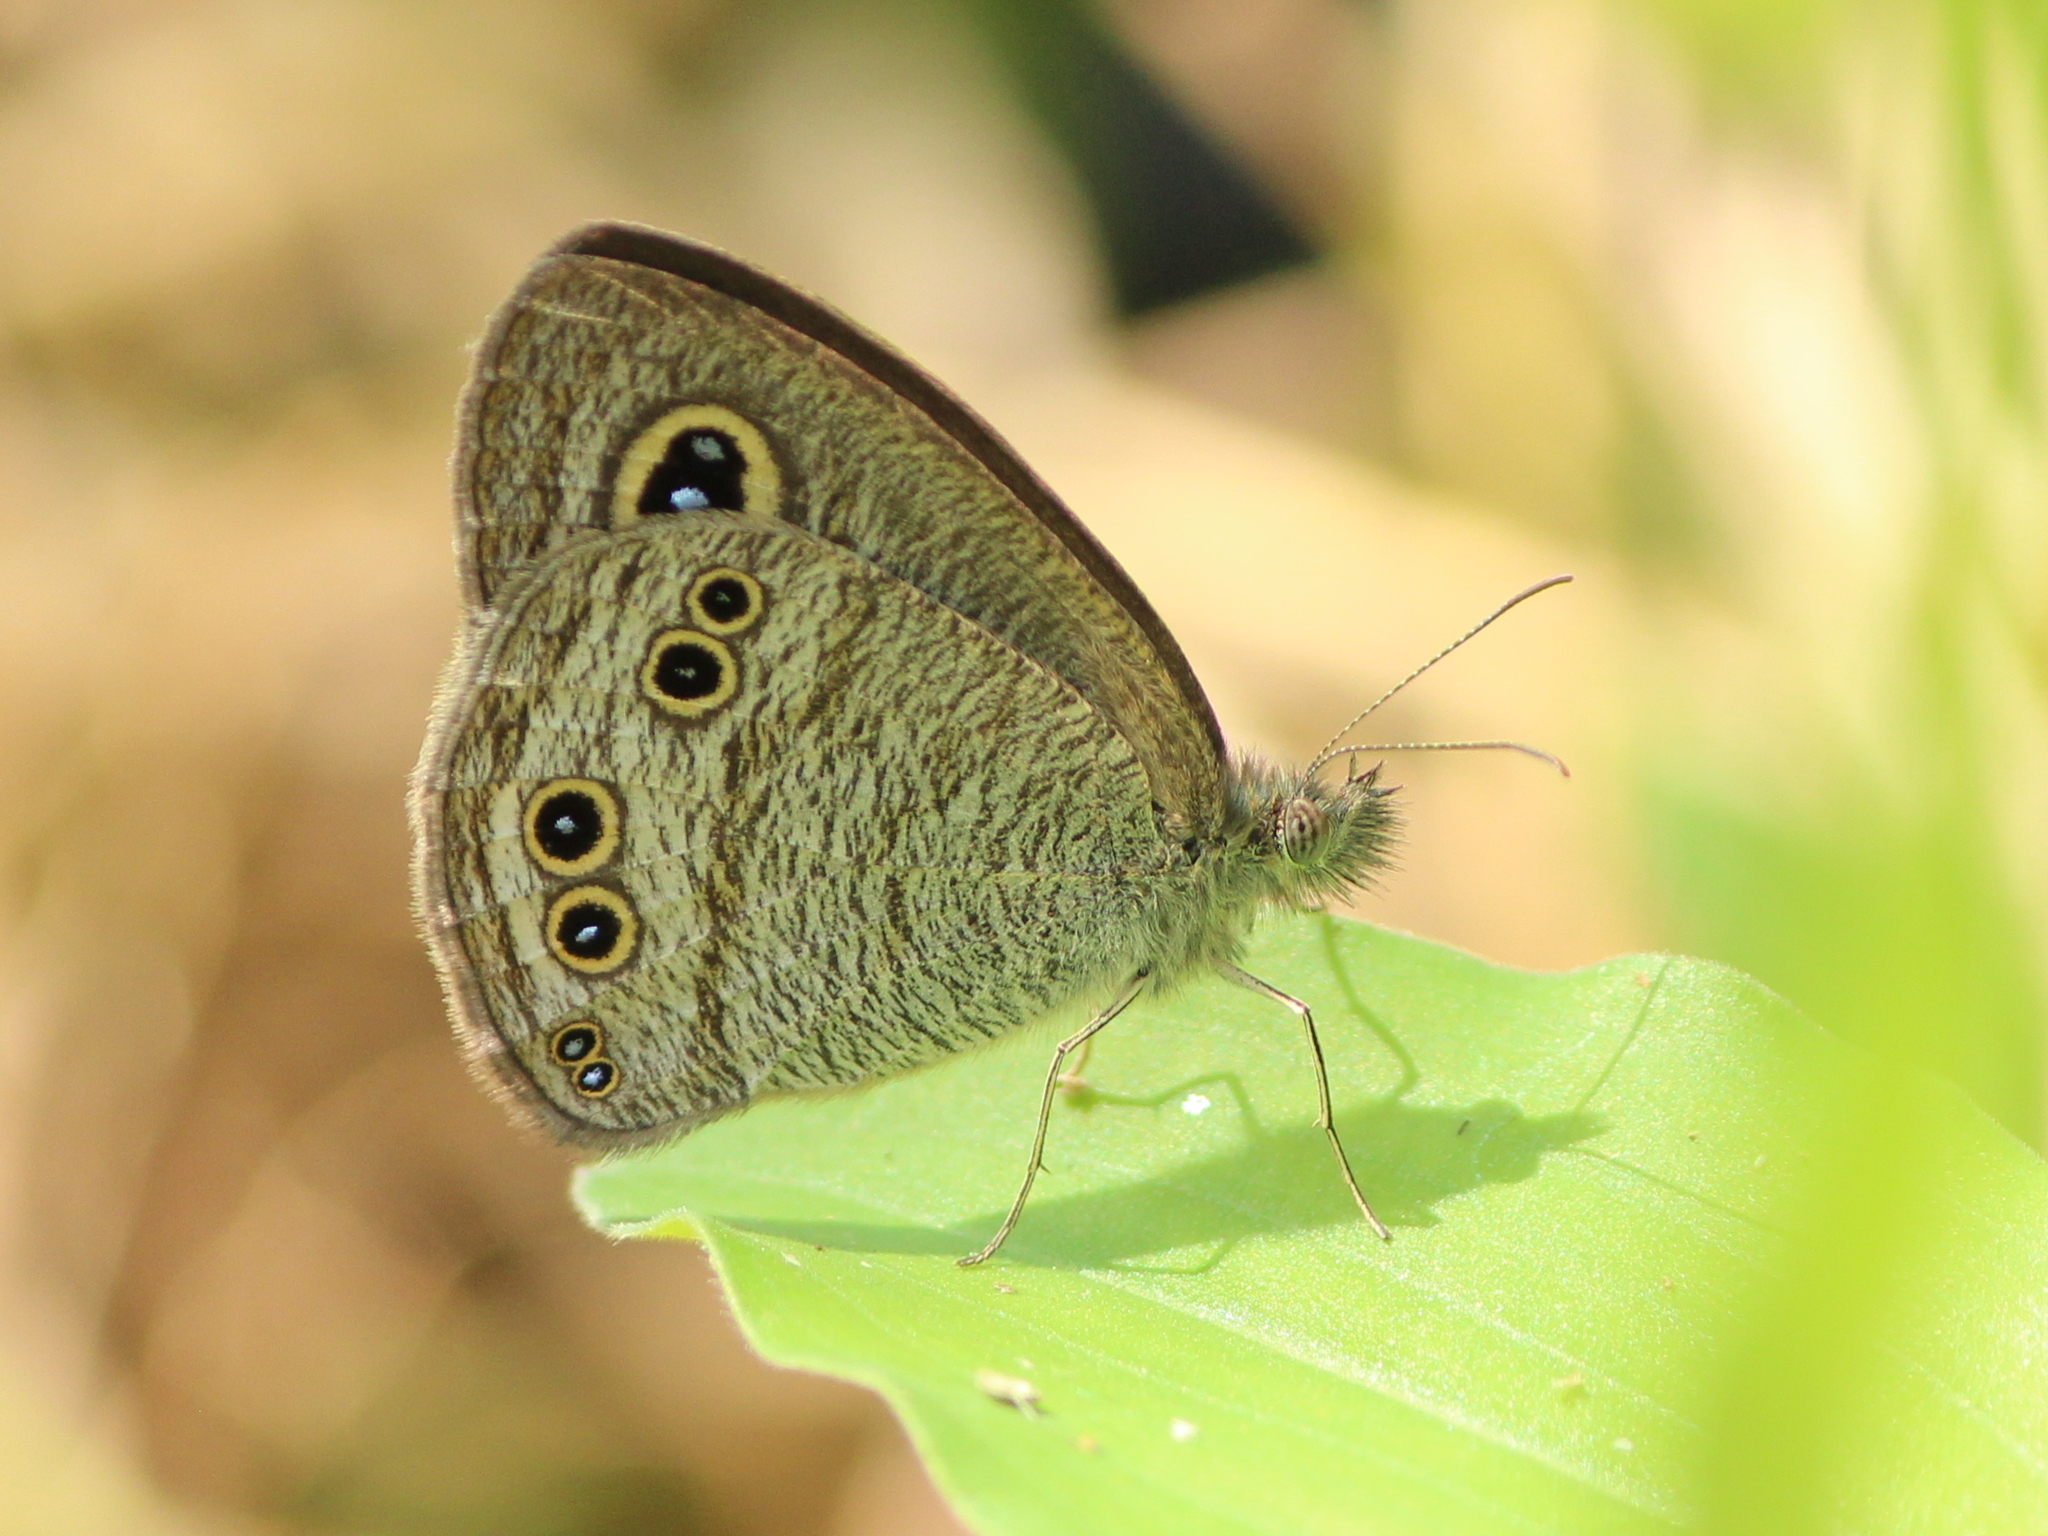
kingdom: Animalia
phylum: Arthropoda
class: Insecta
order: Lepidoptera
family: Nymphalidae
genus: Ypthima
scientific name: Ypthima baldus
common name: Common five-ring
